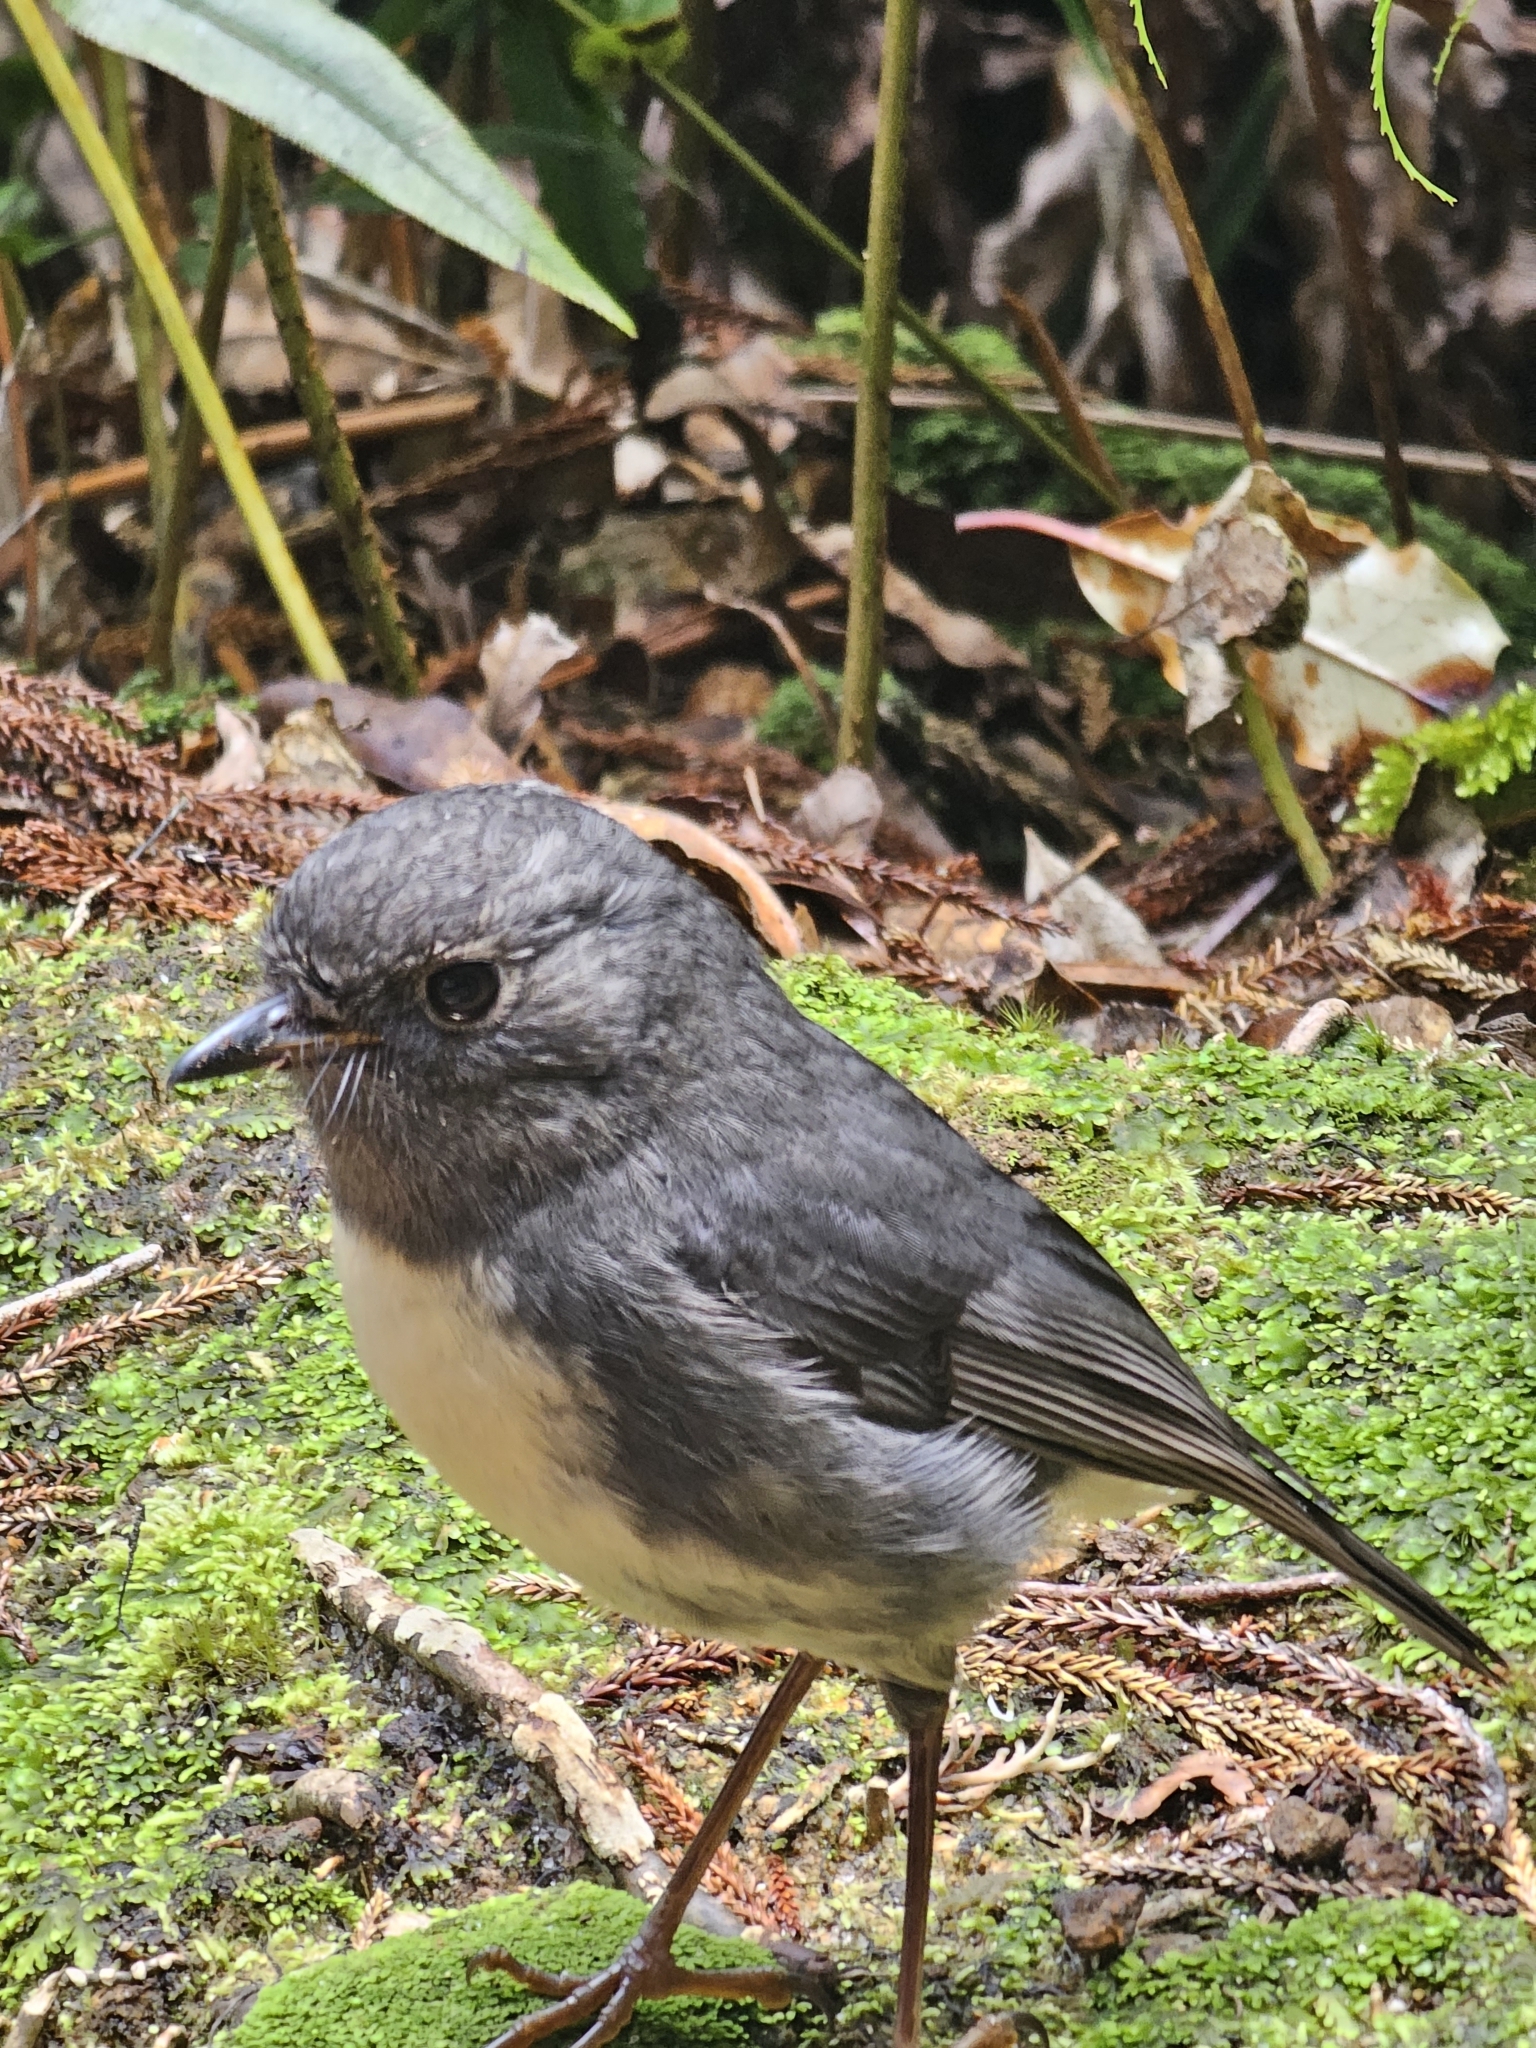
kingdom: Animalia
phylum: Chordata
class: Aves
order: Passeriformes
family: Petroicidae
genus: Petroica
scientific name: Petroica australis
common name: New zealand robin
